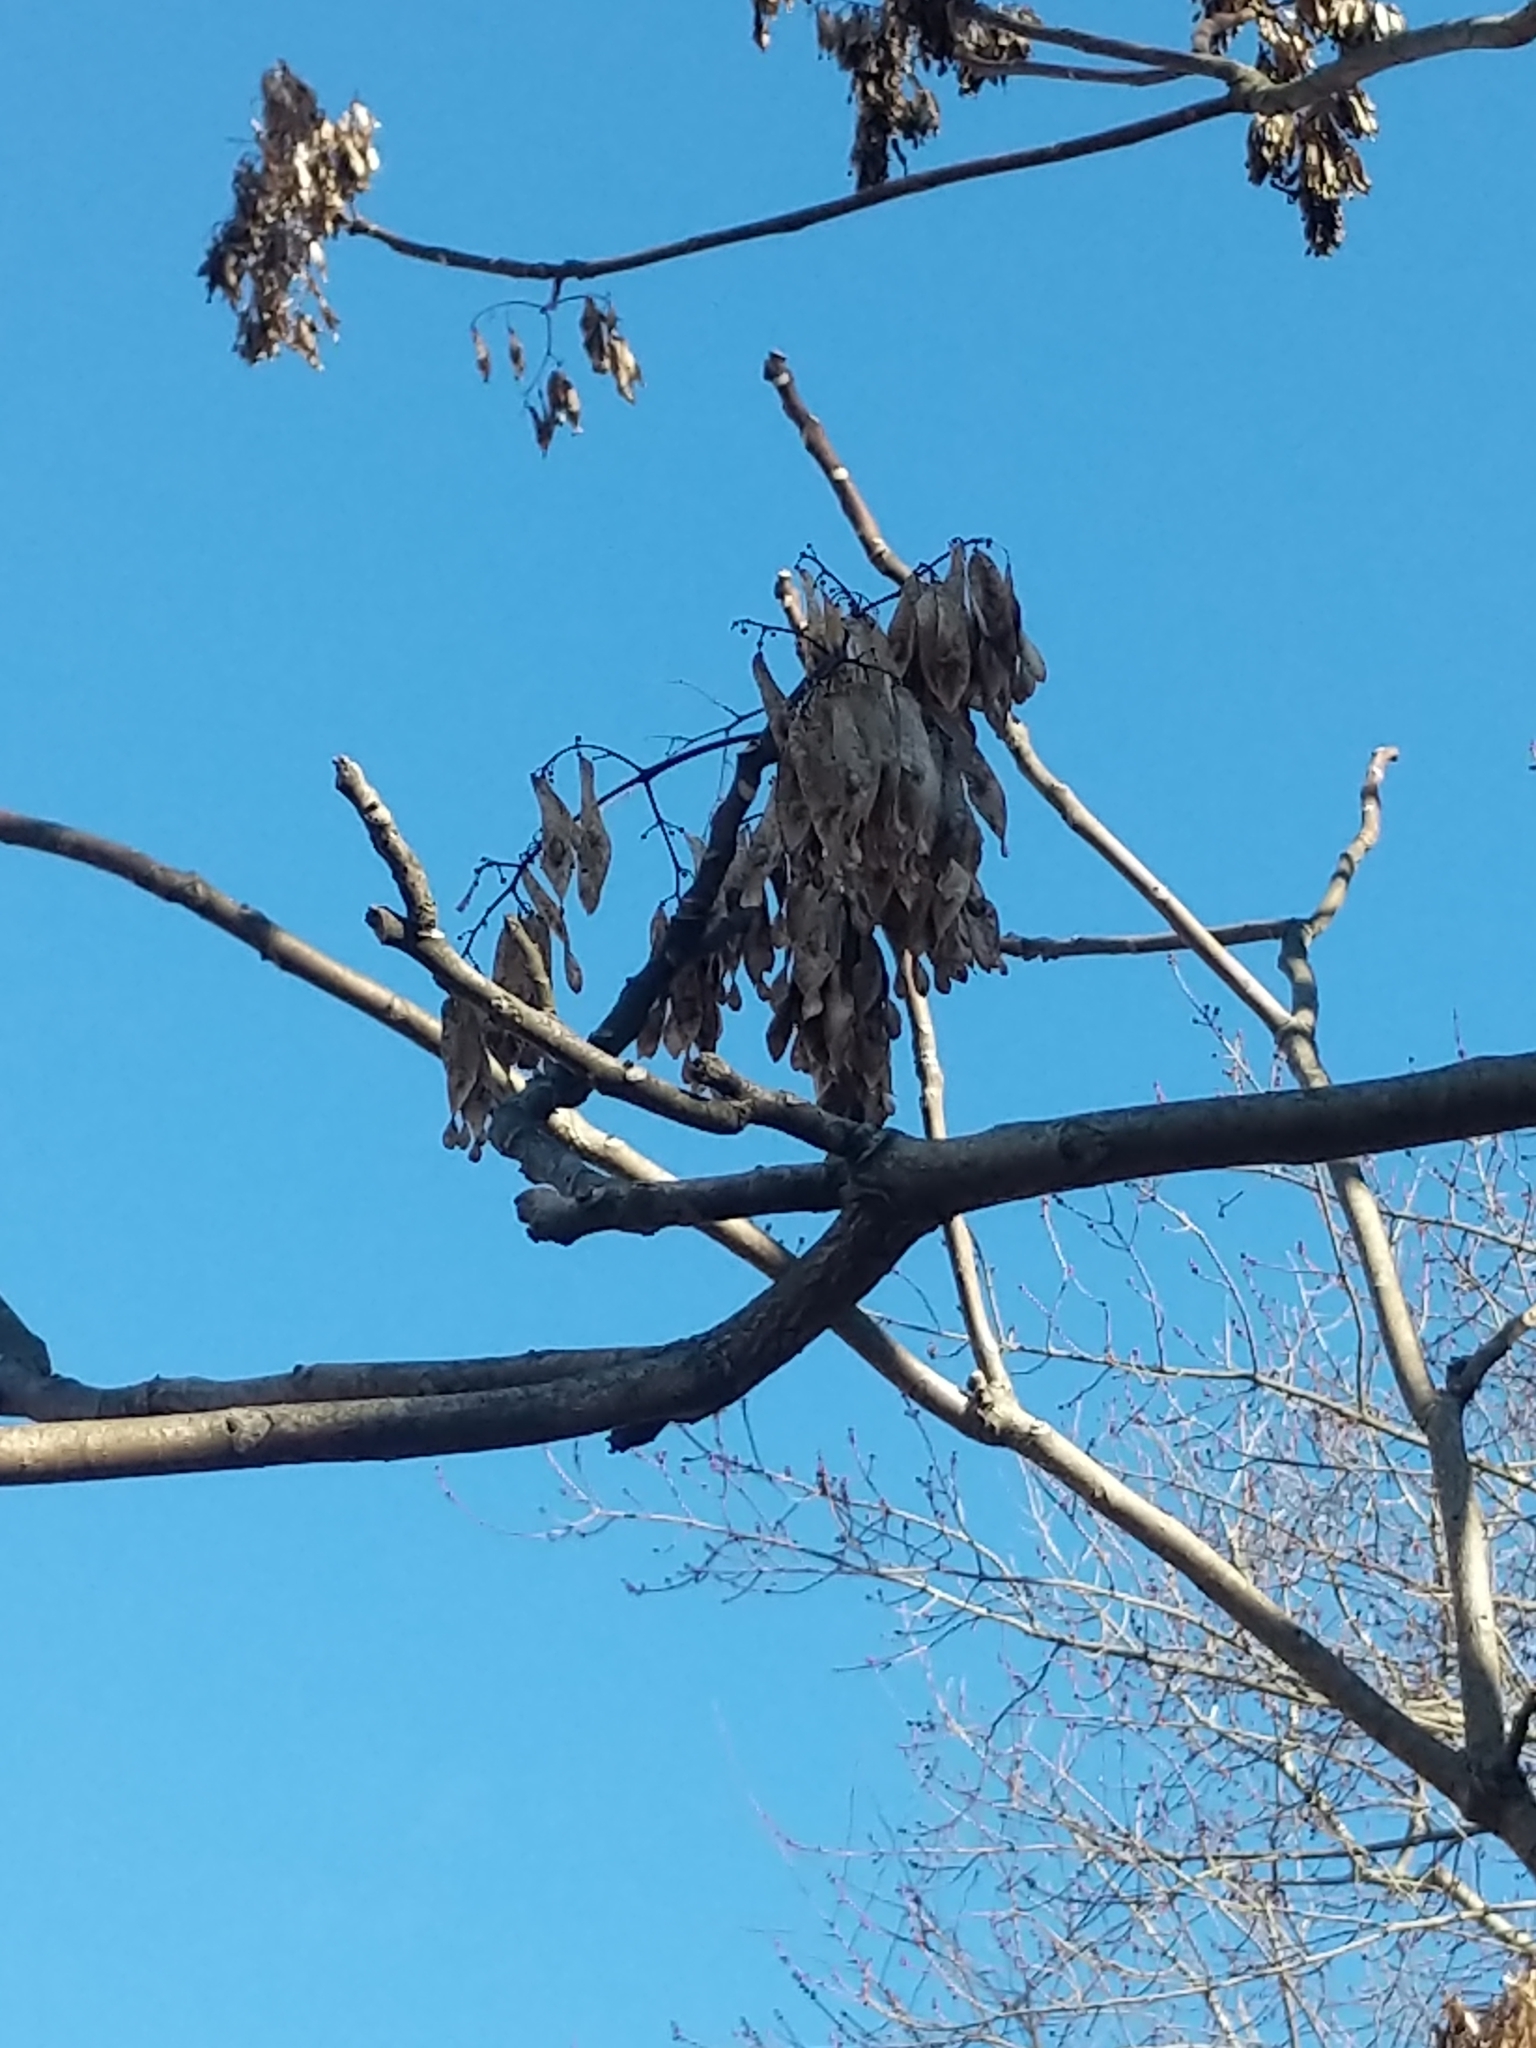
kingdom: Plantae
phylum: Tracheophyta
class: Magnoliopsida
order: Sapindales
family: Simaroubaceae
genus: Ailanthus
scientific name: Ailanthus altissima
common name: Tree-of-heaven
